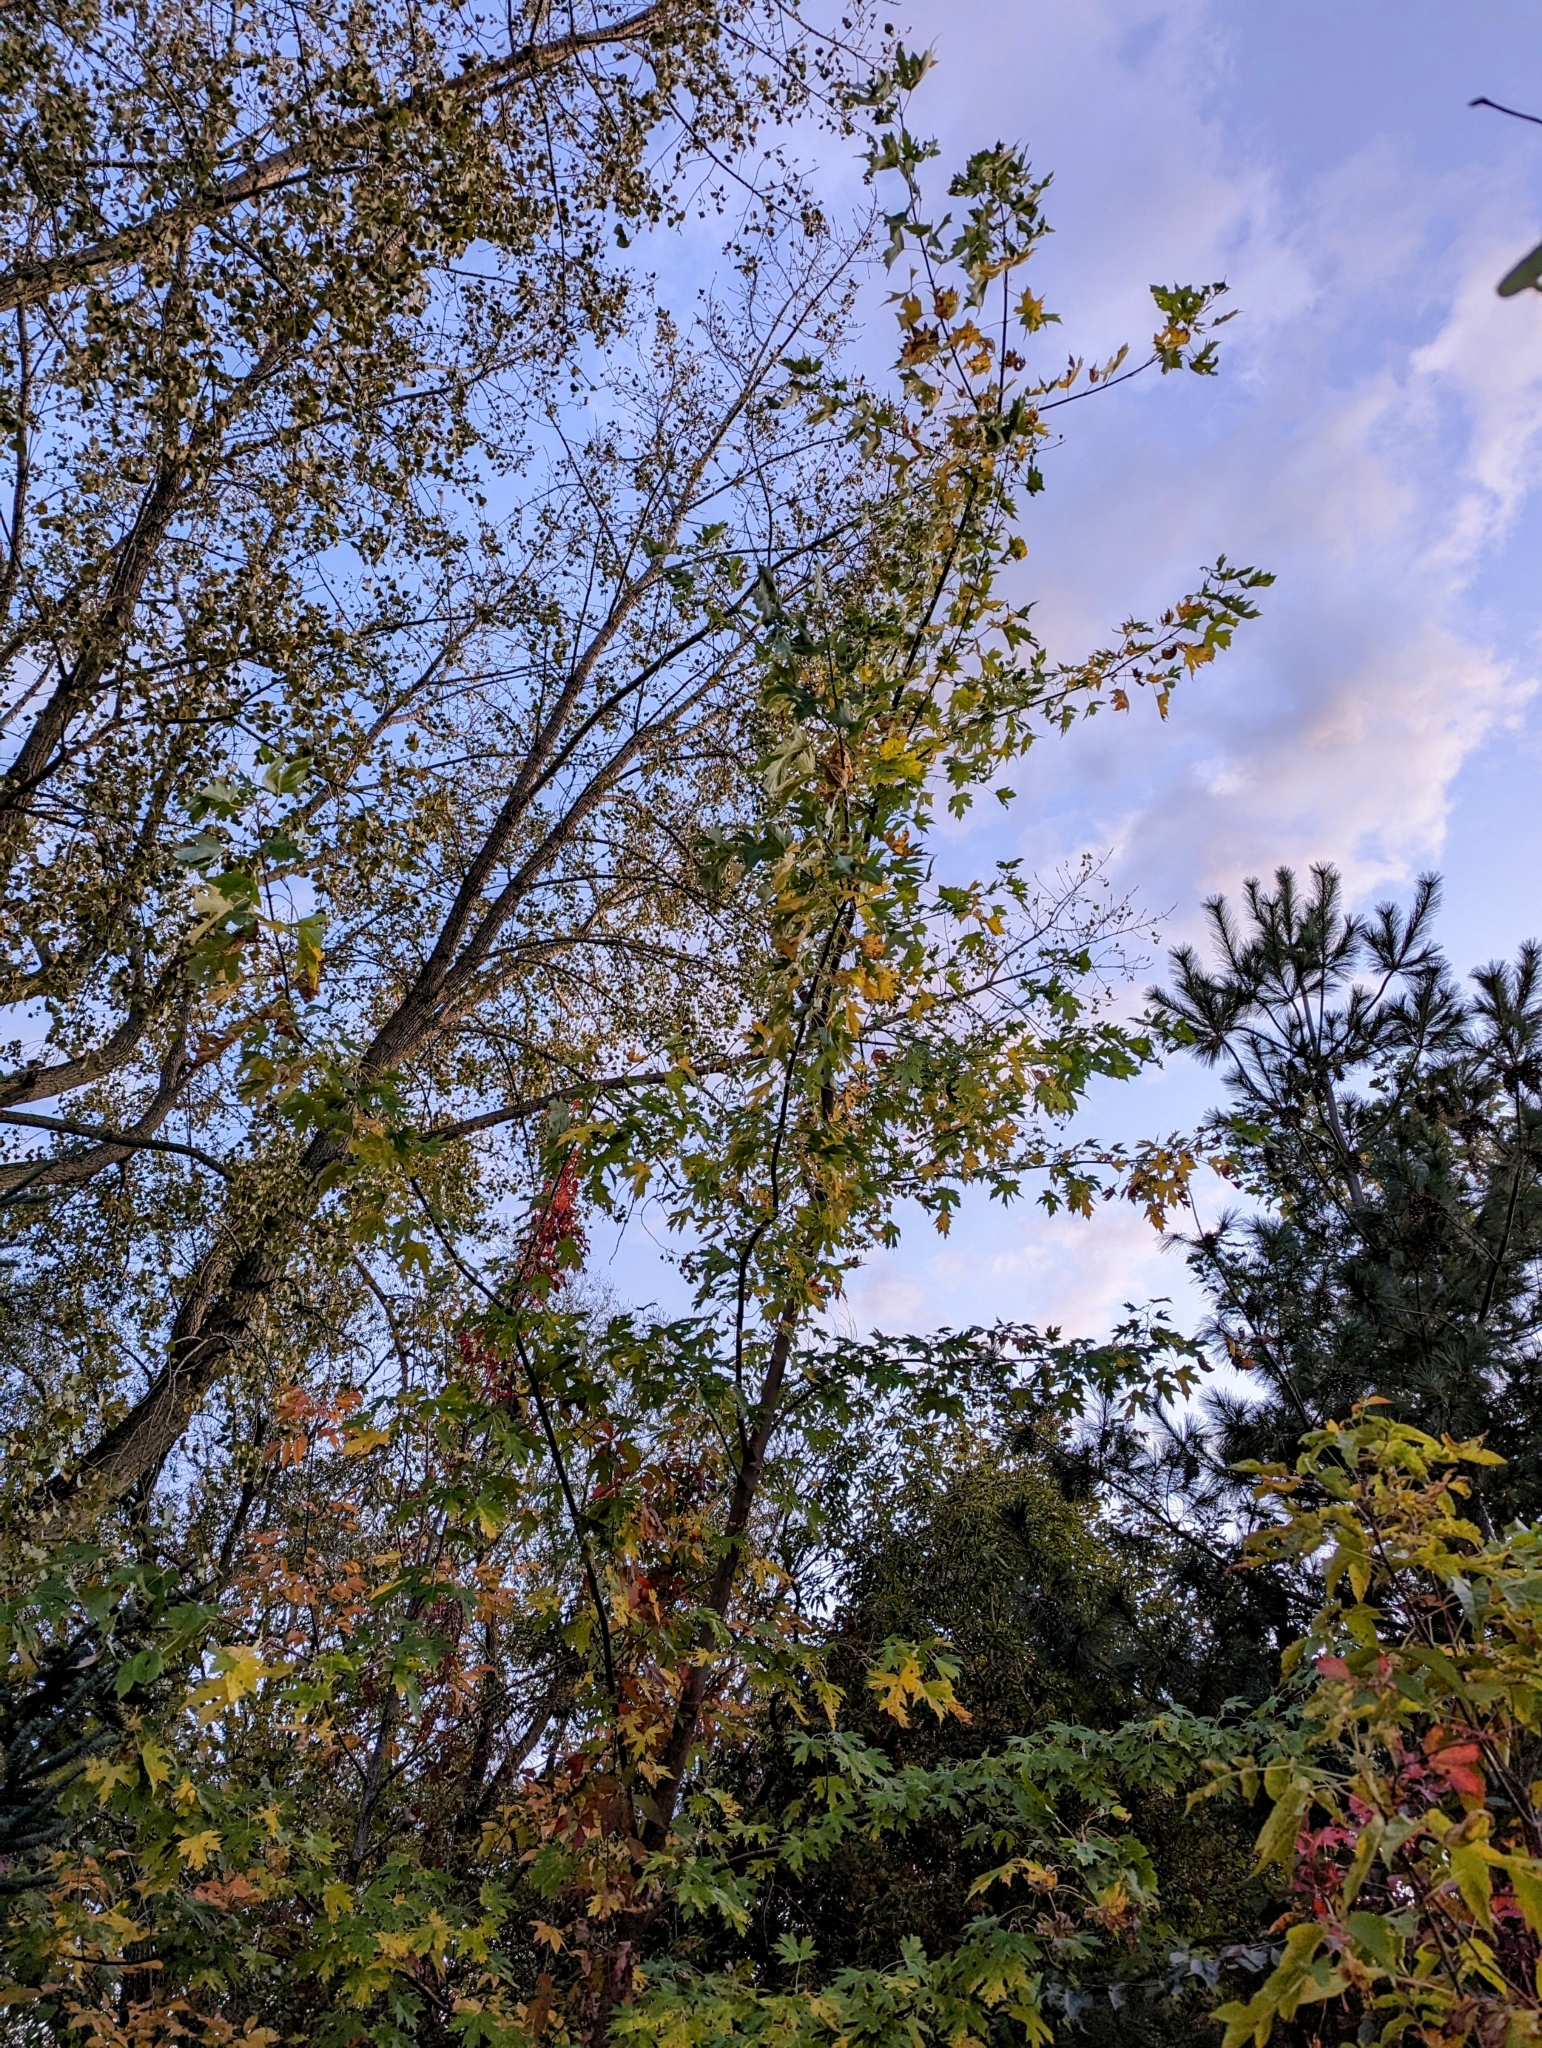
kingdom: Plantae
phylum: Tracheophyta
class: Magnoliopsida
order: Sapindales
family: Sapindaceae
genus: Acer
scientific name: Acer saccharinum
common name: Silver maple
